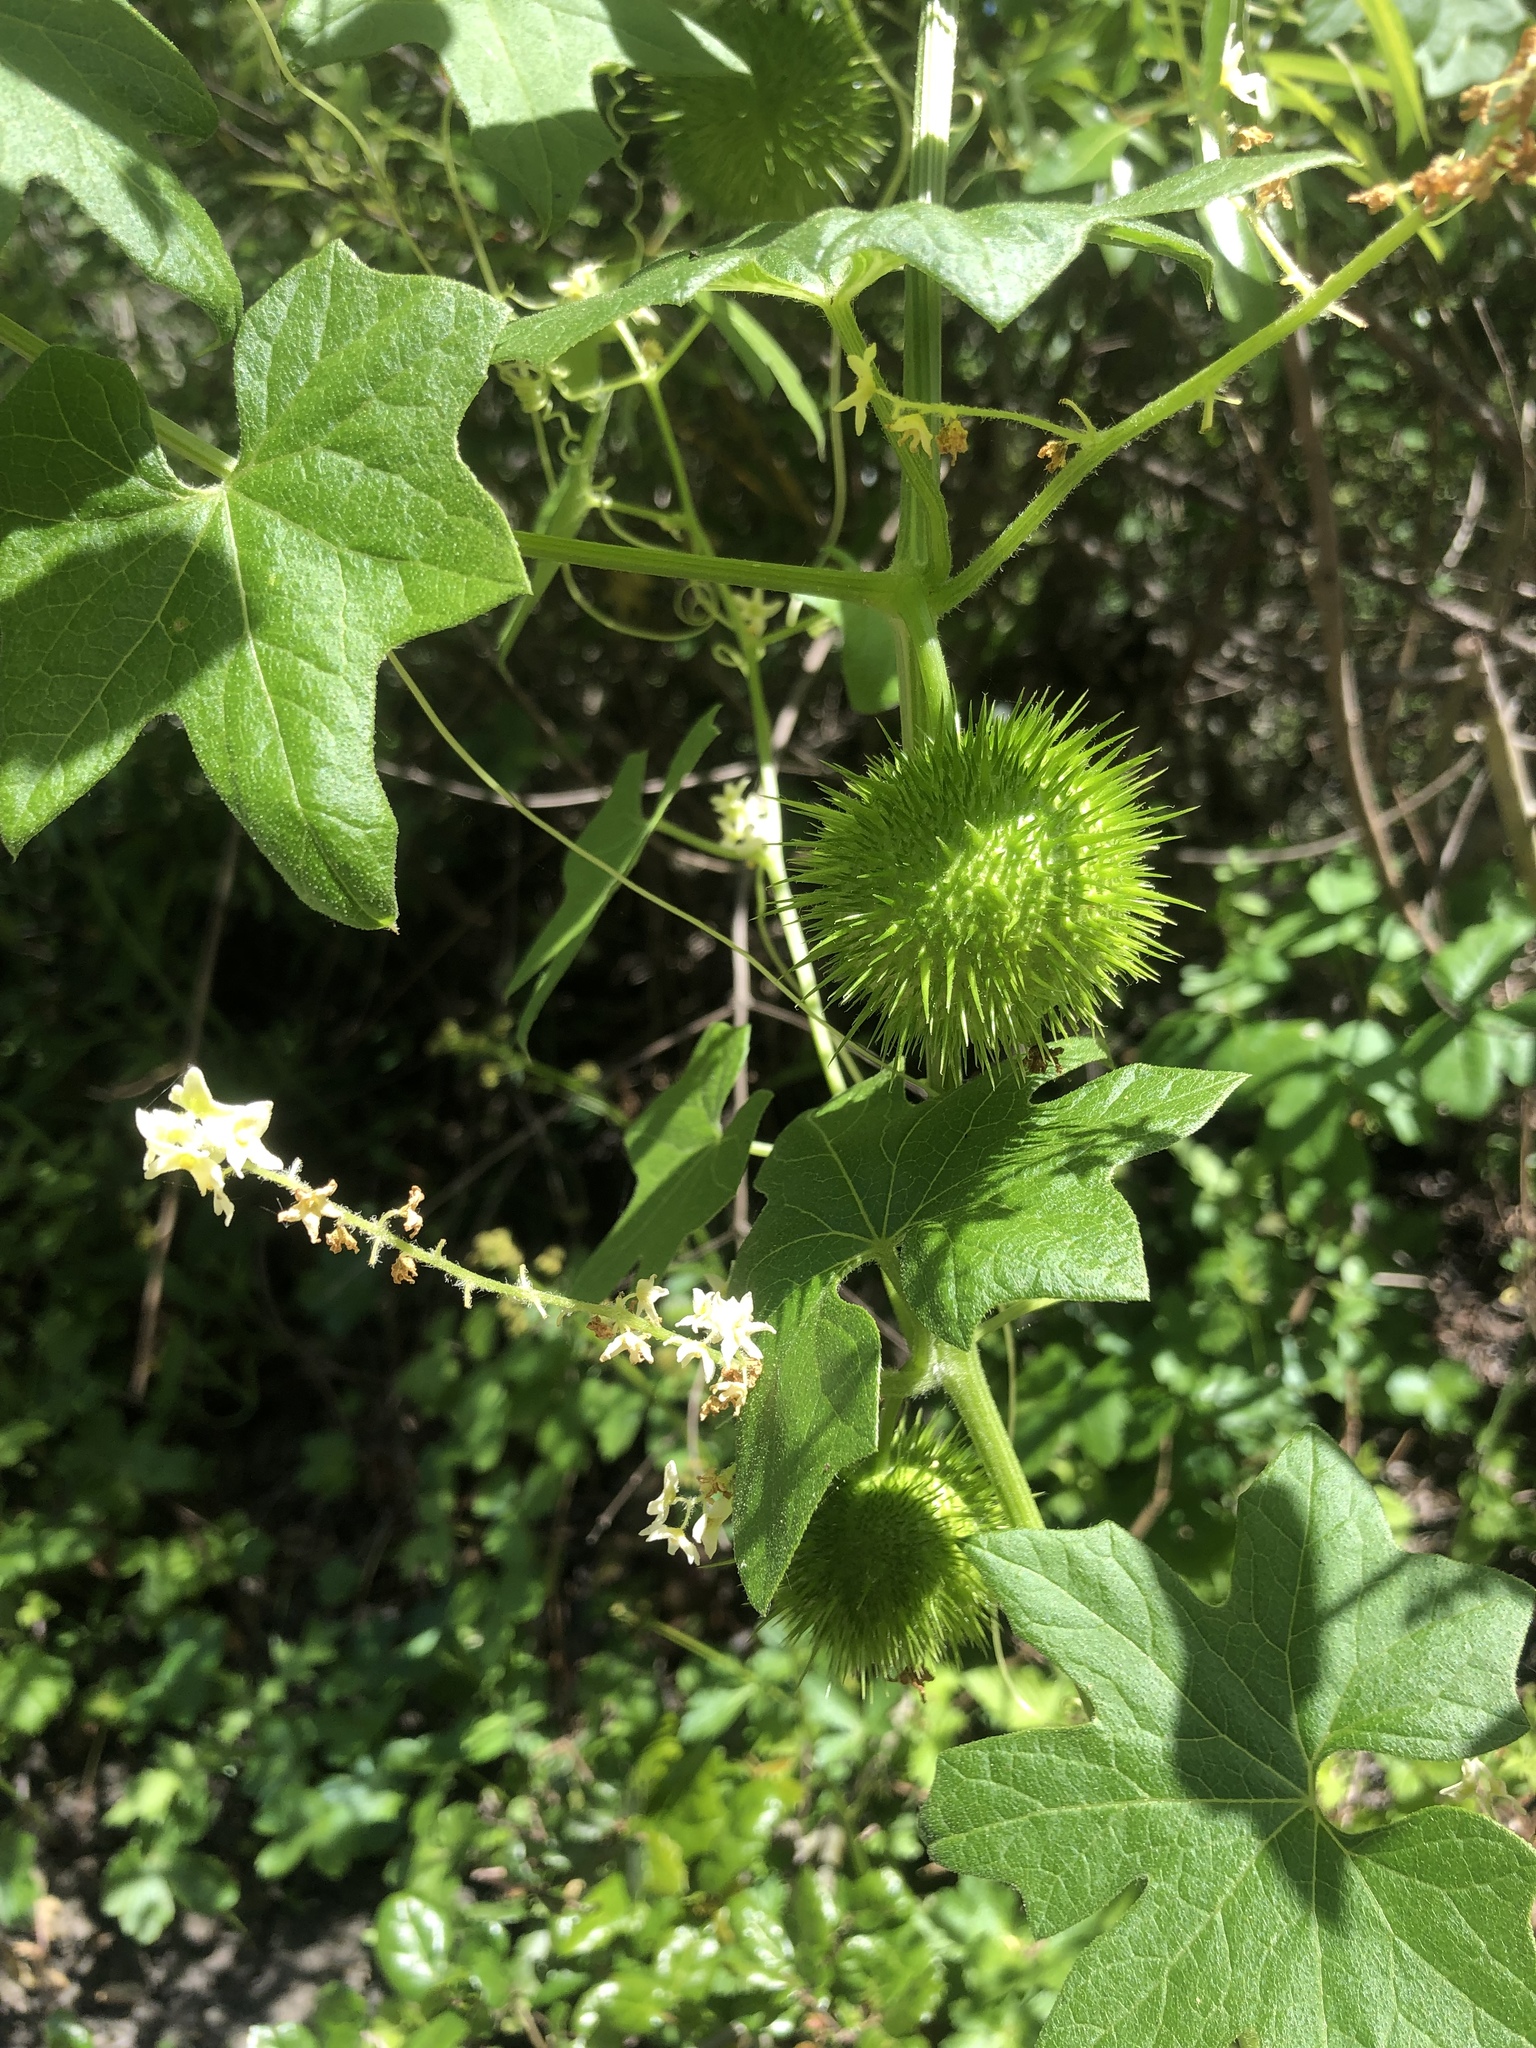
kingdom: Plantae
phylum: Tracheophyta
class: Magnoliopsida
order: Cucurbitales
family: Cucurbitaceae
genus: Marah
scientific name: Marah fabacea
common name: California manroot
